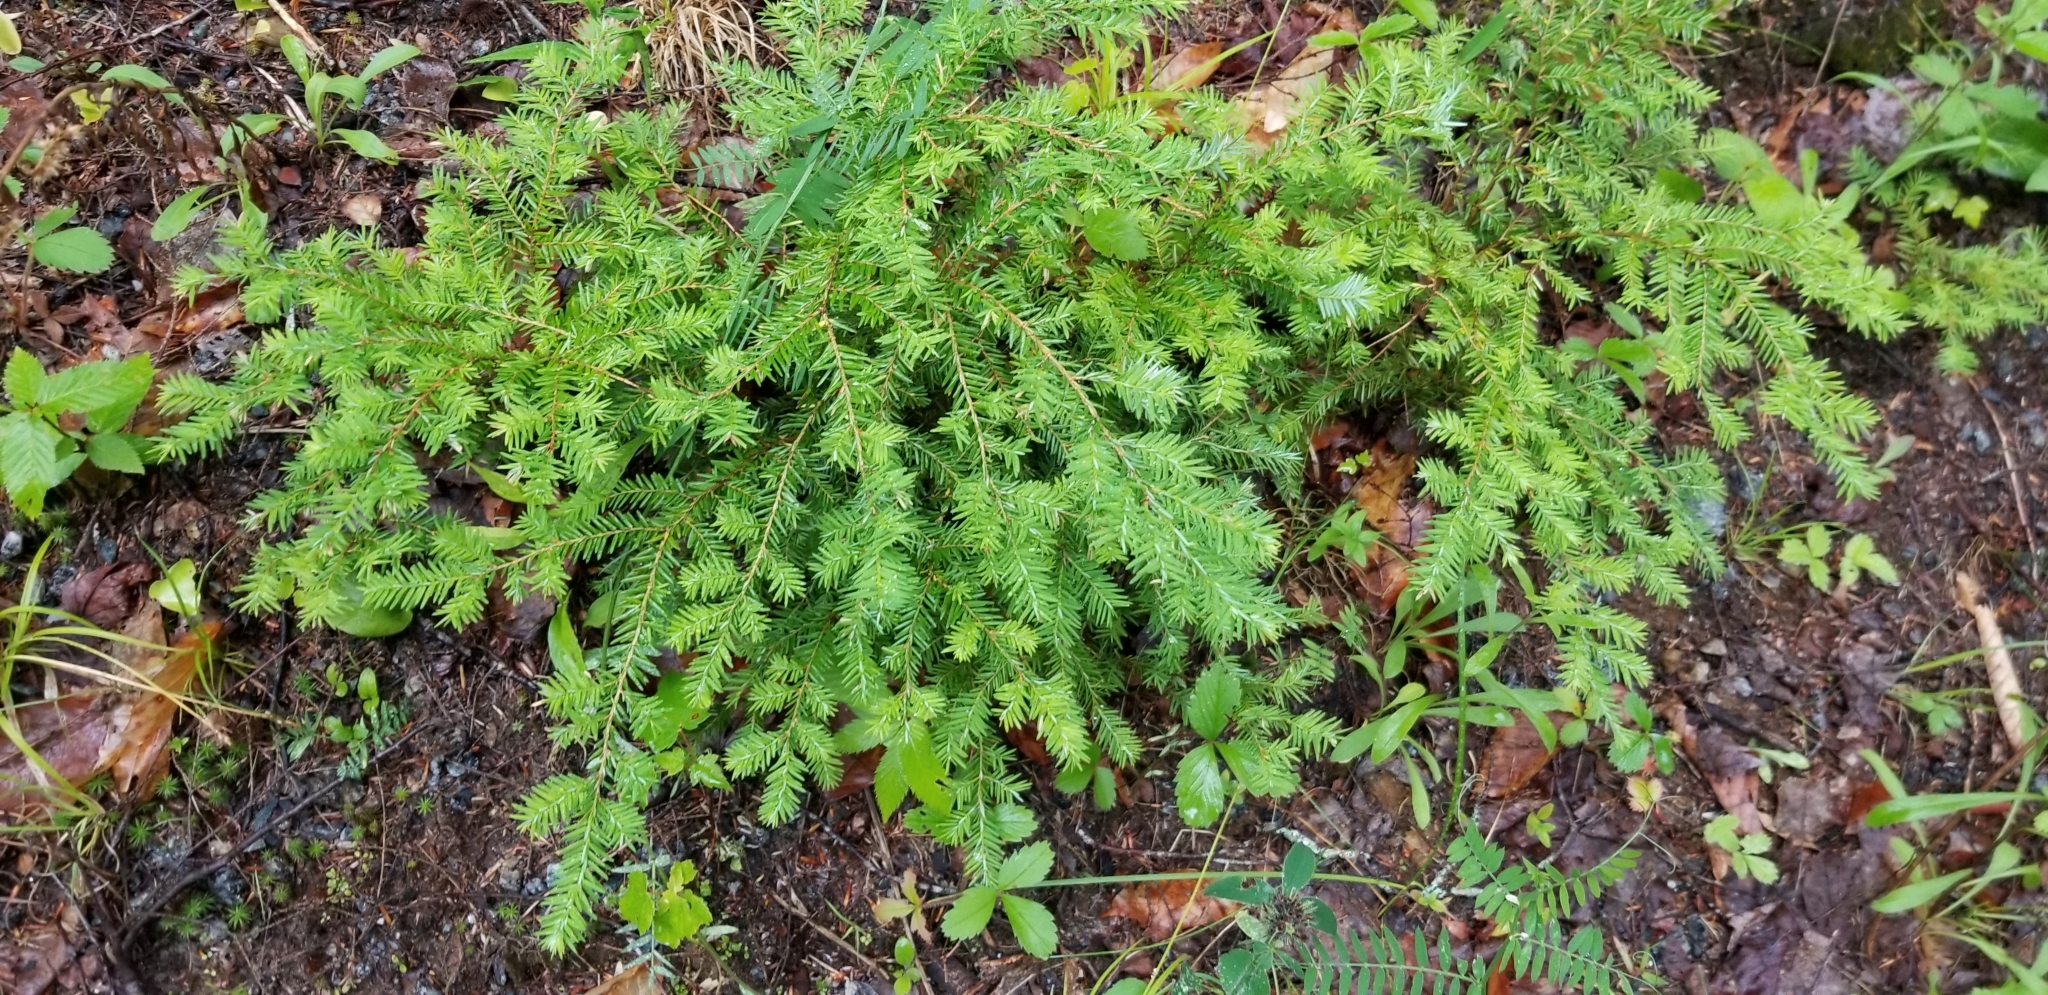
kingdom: Plantae
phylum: Tracheophyta
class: Pinopsida
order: Pinales
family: Pinaceae
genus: Tsuga
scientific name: Tsuga canadensis
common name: Eastern hemlock
